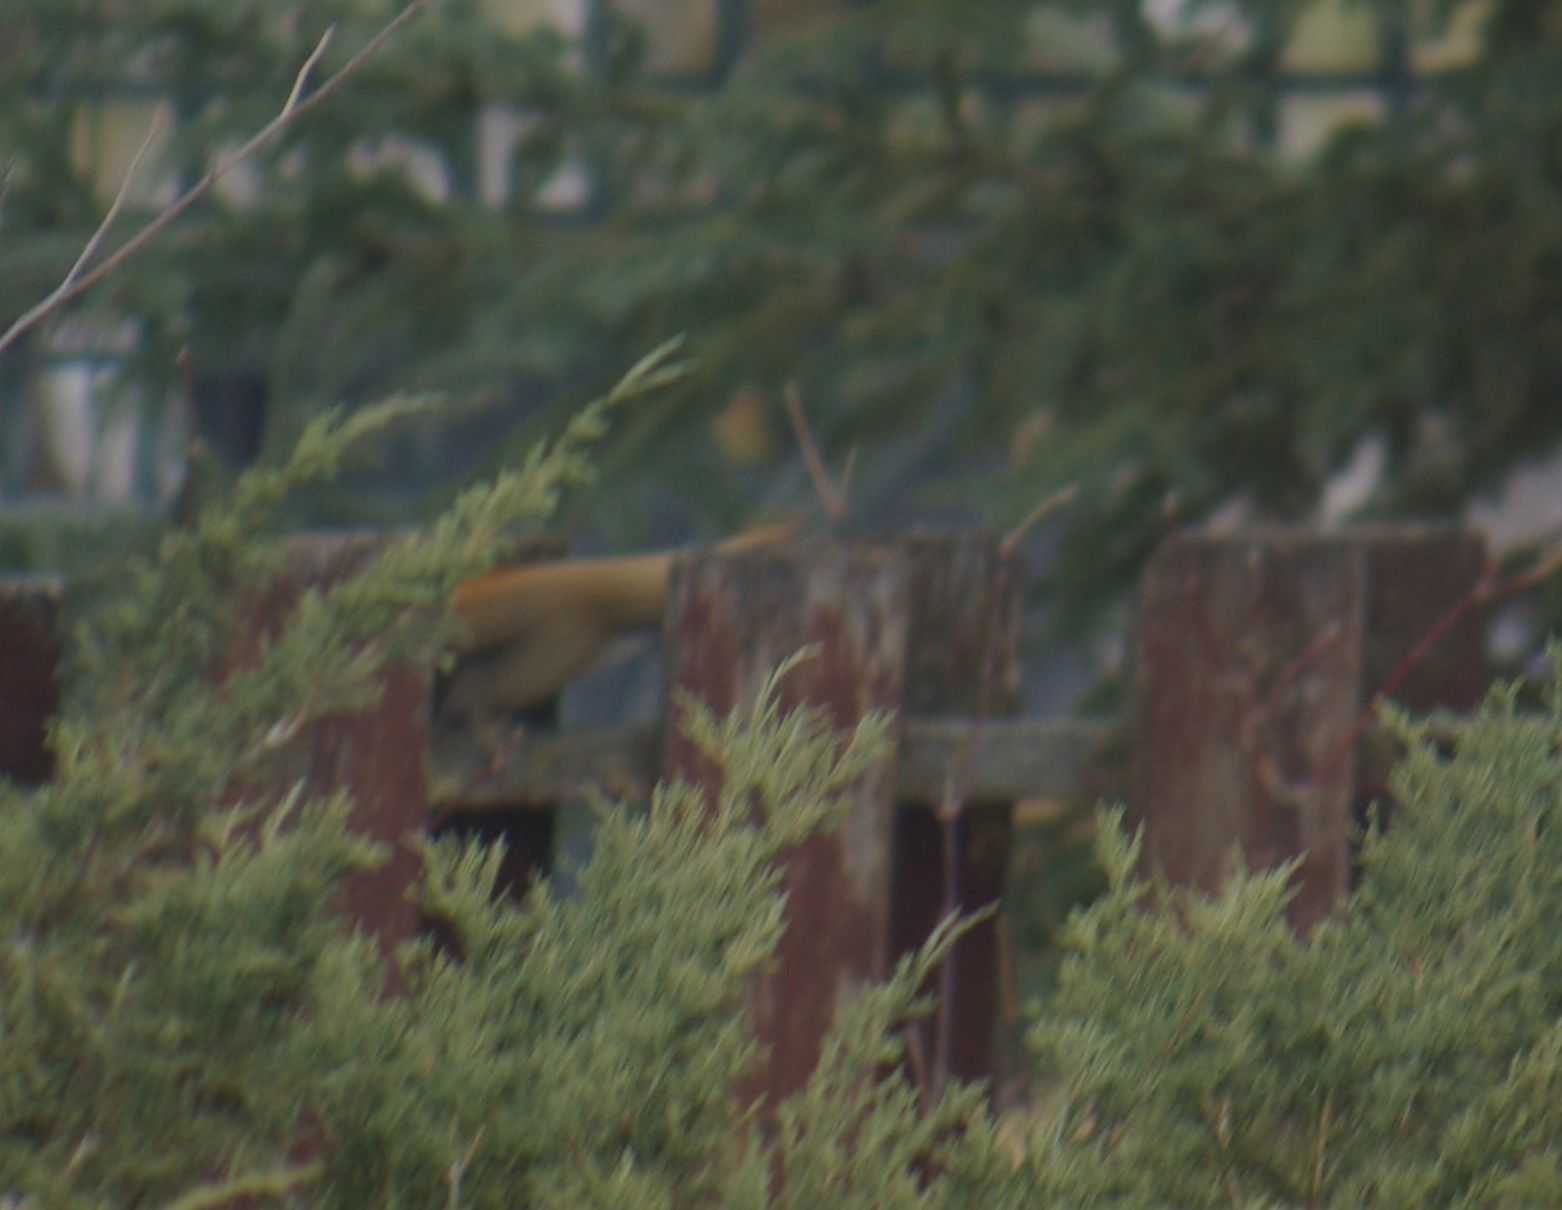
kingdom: Animalia
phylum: Chordata
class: Mammalia
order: Rodentia
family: Sciuridae
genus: Tamiasciurus
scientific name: Tamiasciurus hudsonicus
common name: Red squirrel
